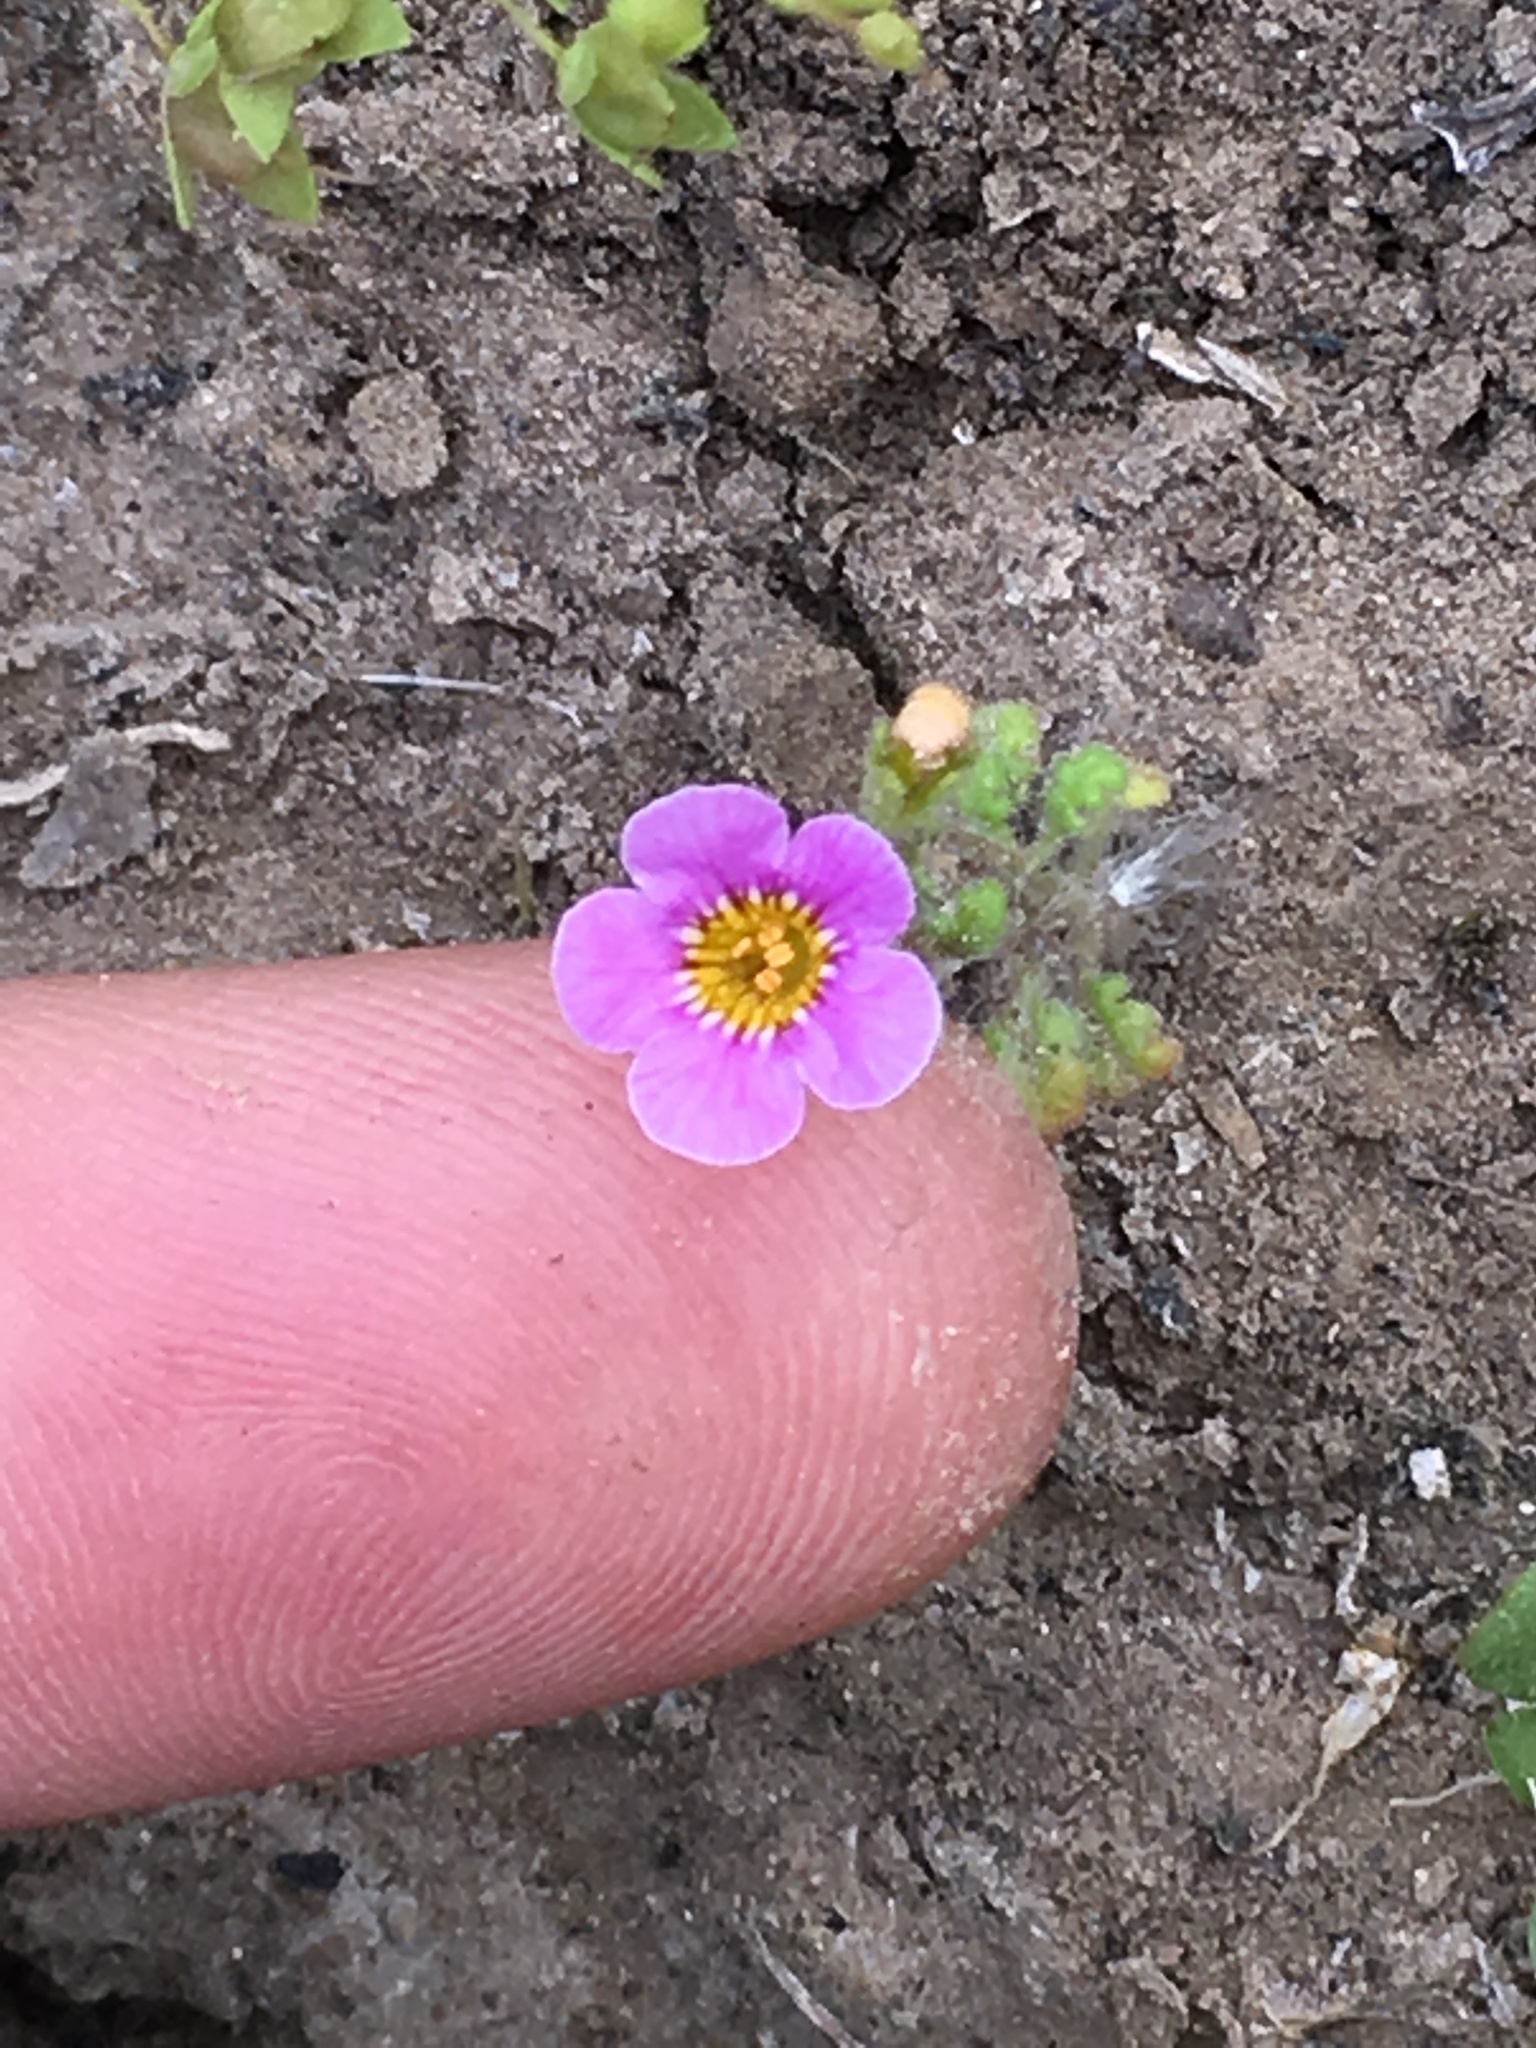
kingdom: Plantae
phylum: Tracheophyta
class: Magnoliopsida
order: Boraginales
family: Hydrophyllaceae
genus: Phacelia
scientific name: Phacelia brachyloba
